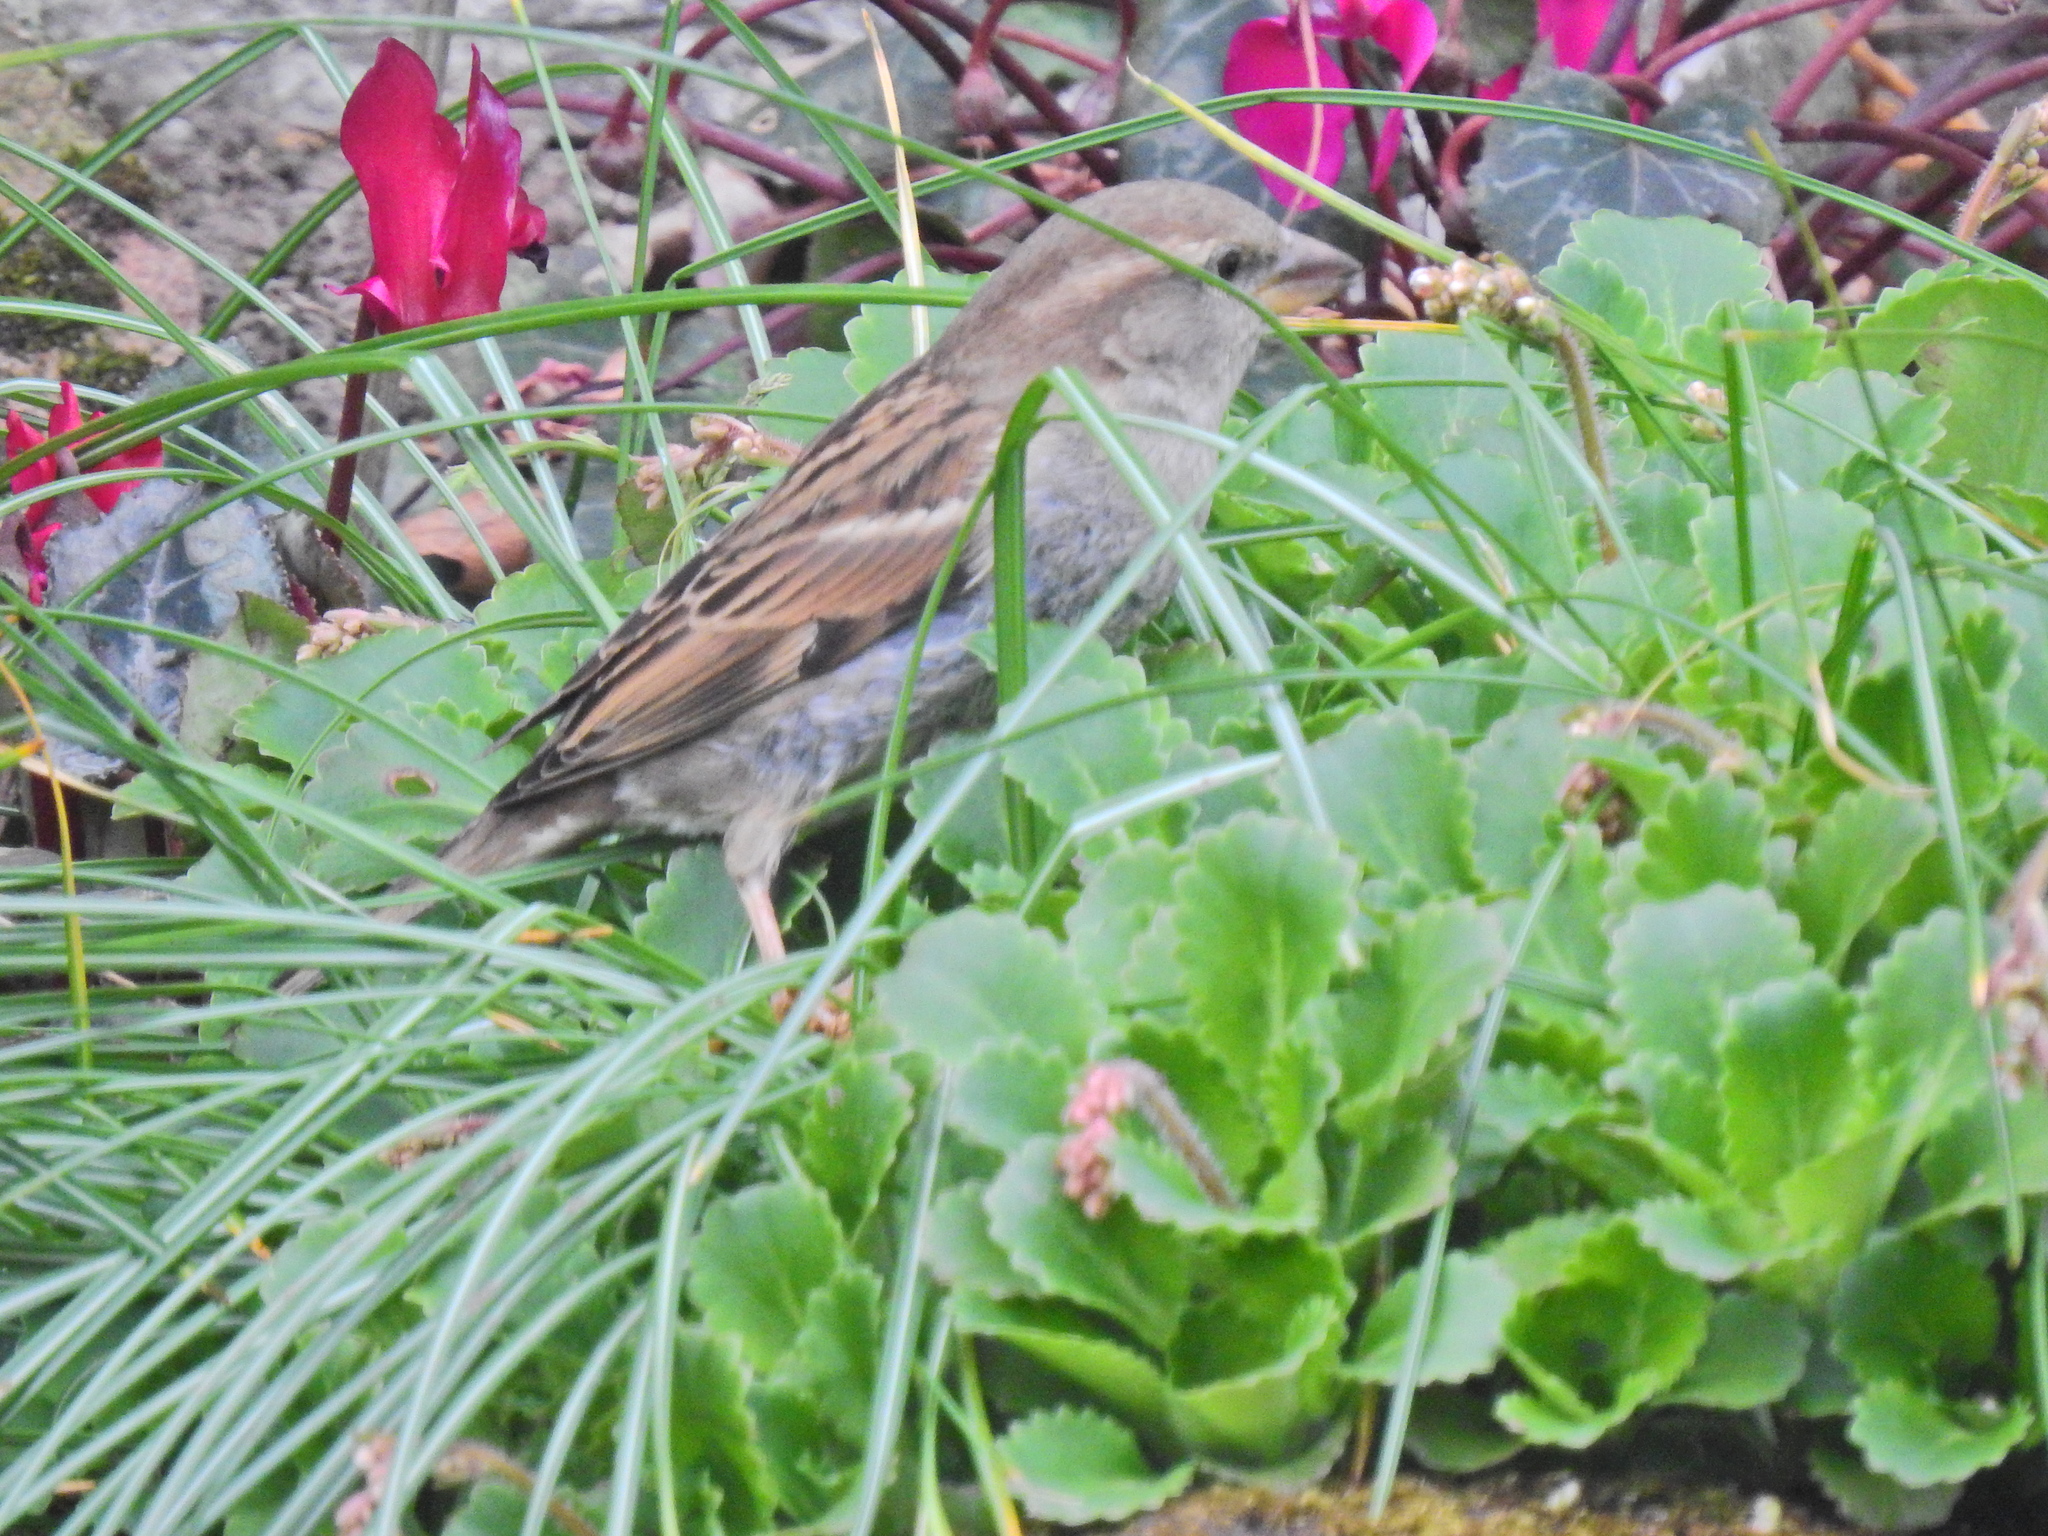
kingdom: Animalia
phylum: Chordata
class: Aves
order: Passeriformes
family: Prunellidae
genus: Prunella
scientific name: Prunella modularis
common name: Dunnock
